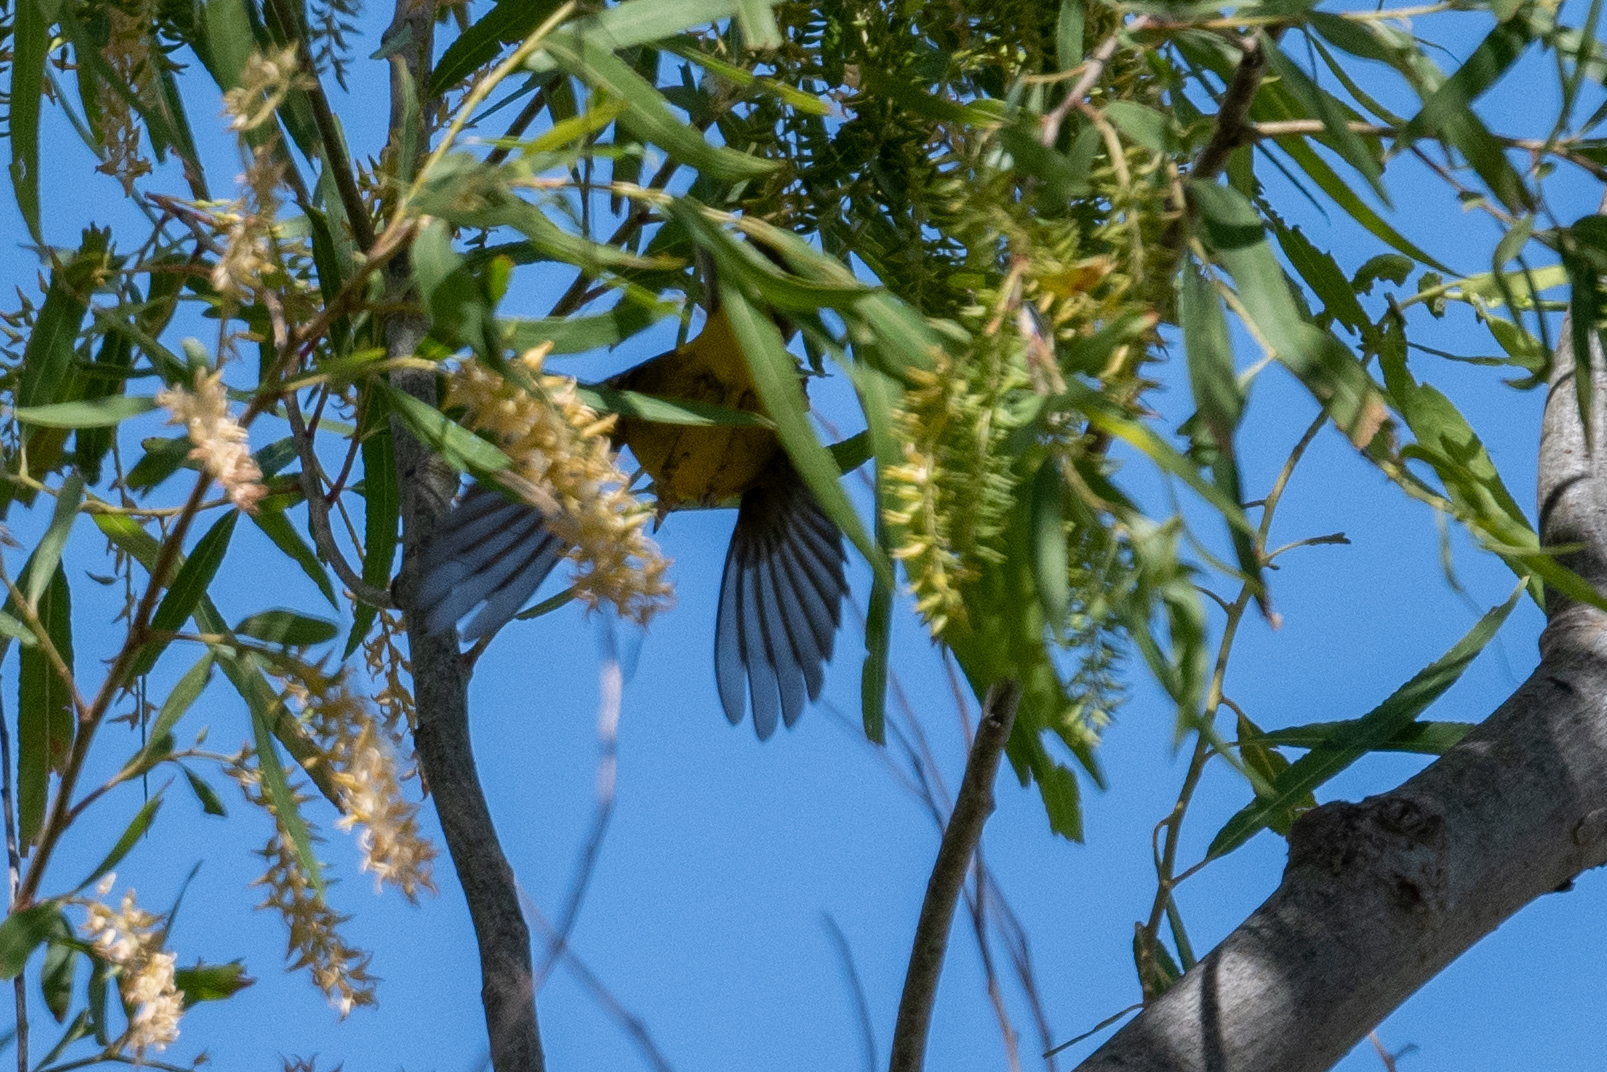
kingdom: Animalia
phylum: Chordata
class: Aves
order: Passeriformes
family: Parulidae
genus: Cardellina
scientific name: Cardellina pusilla
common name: Wilson's warbler
